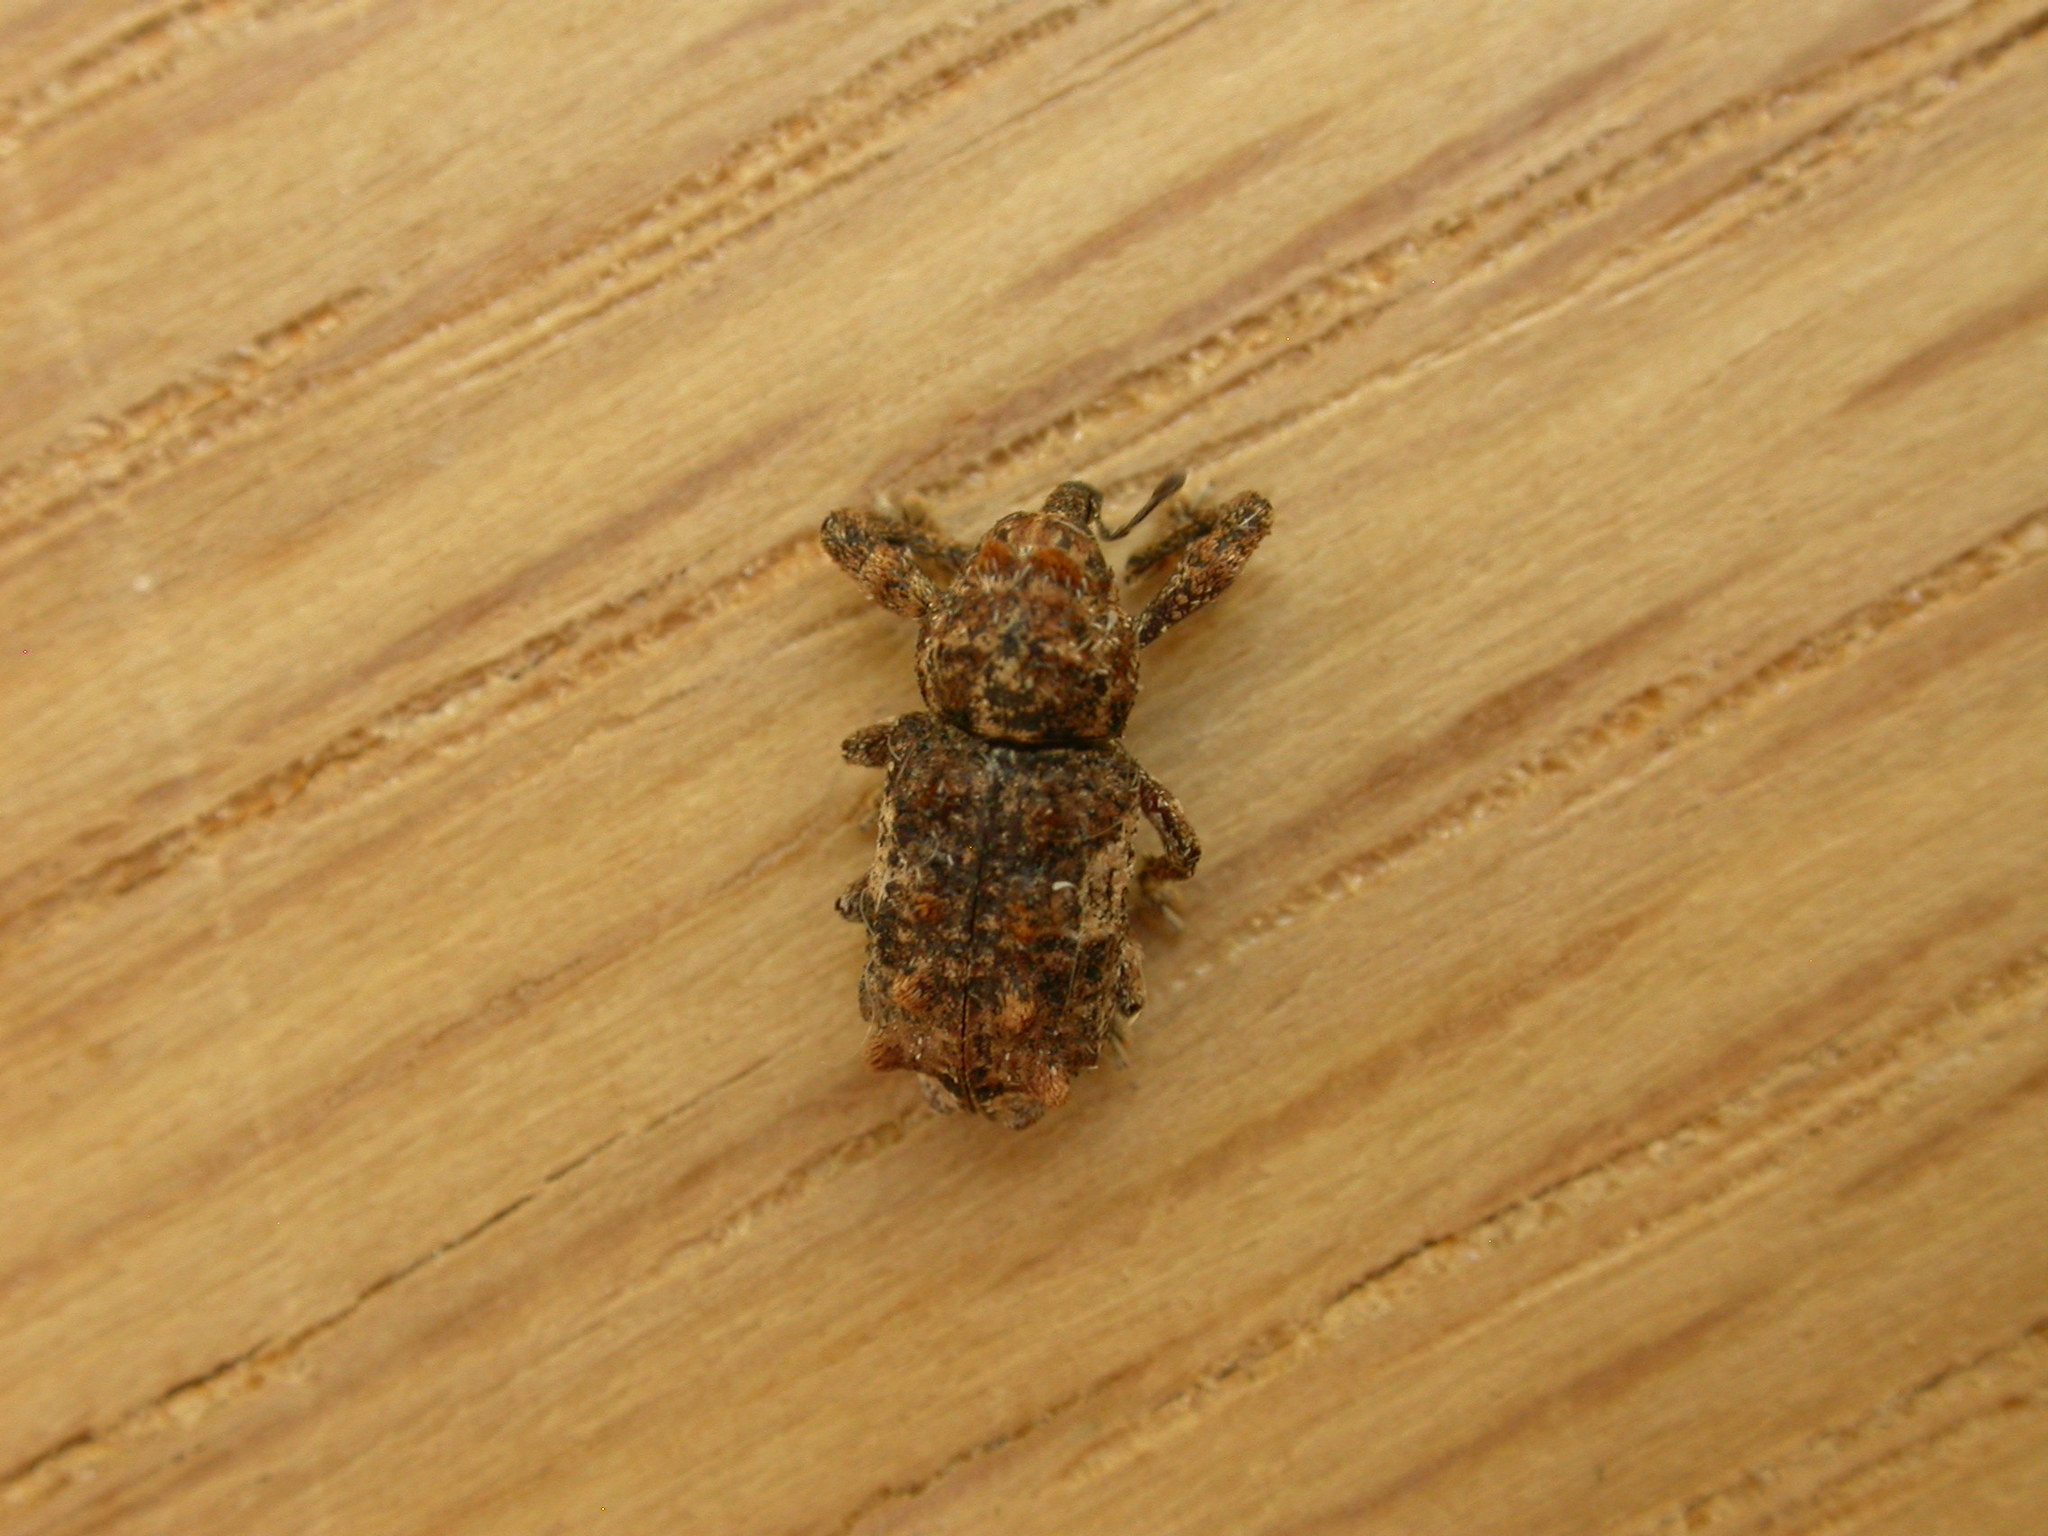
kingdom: Animalia
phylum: Arthropoda
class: Insecta
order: Coleoptera
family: Curculionidae
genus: Orthorhinus
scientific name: Orthorhinus klugii
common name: Vine weevil
